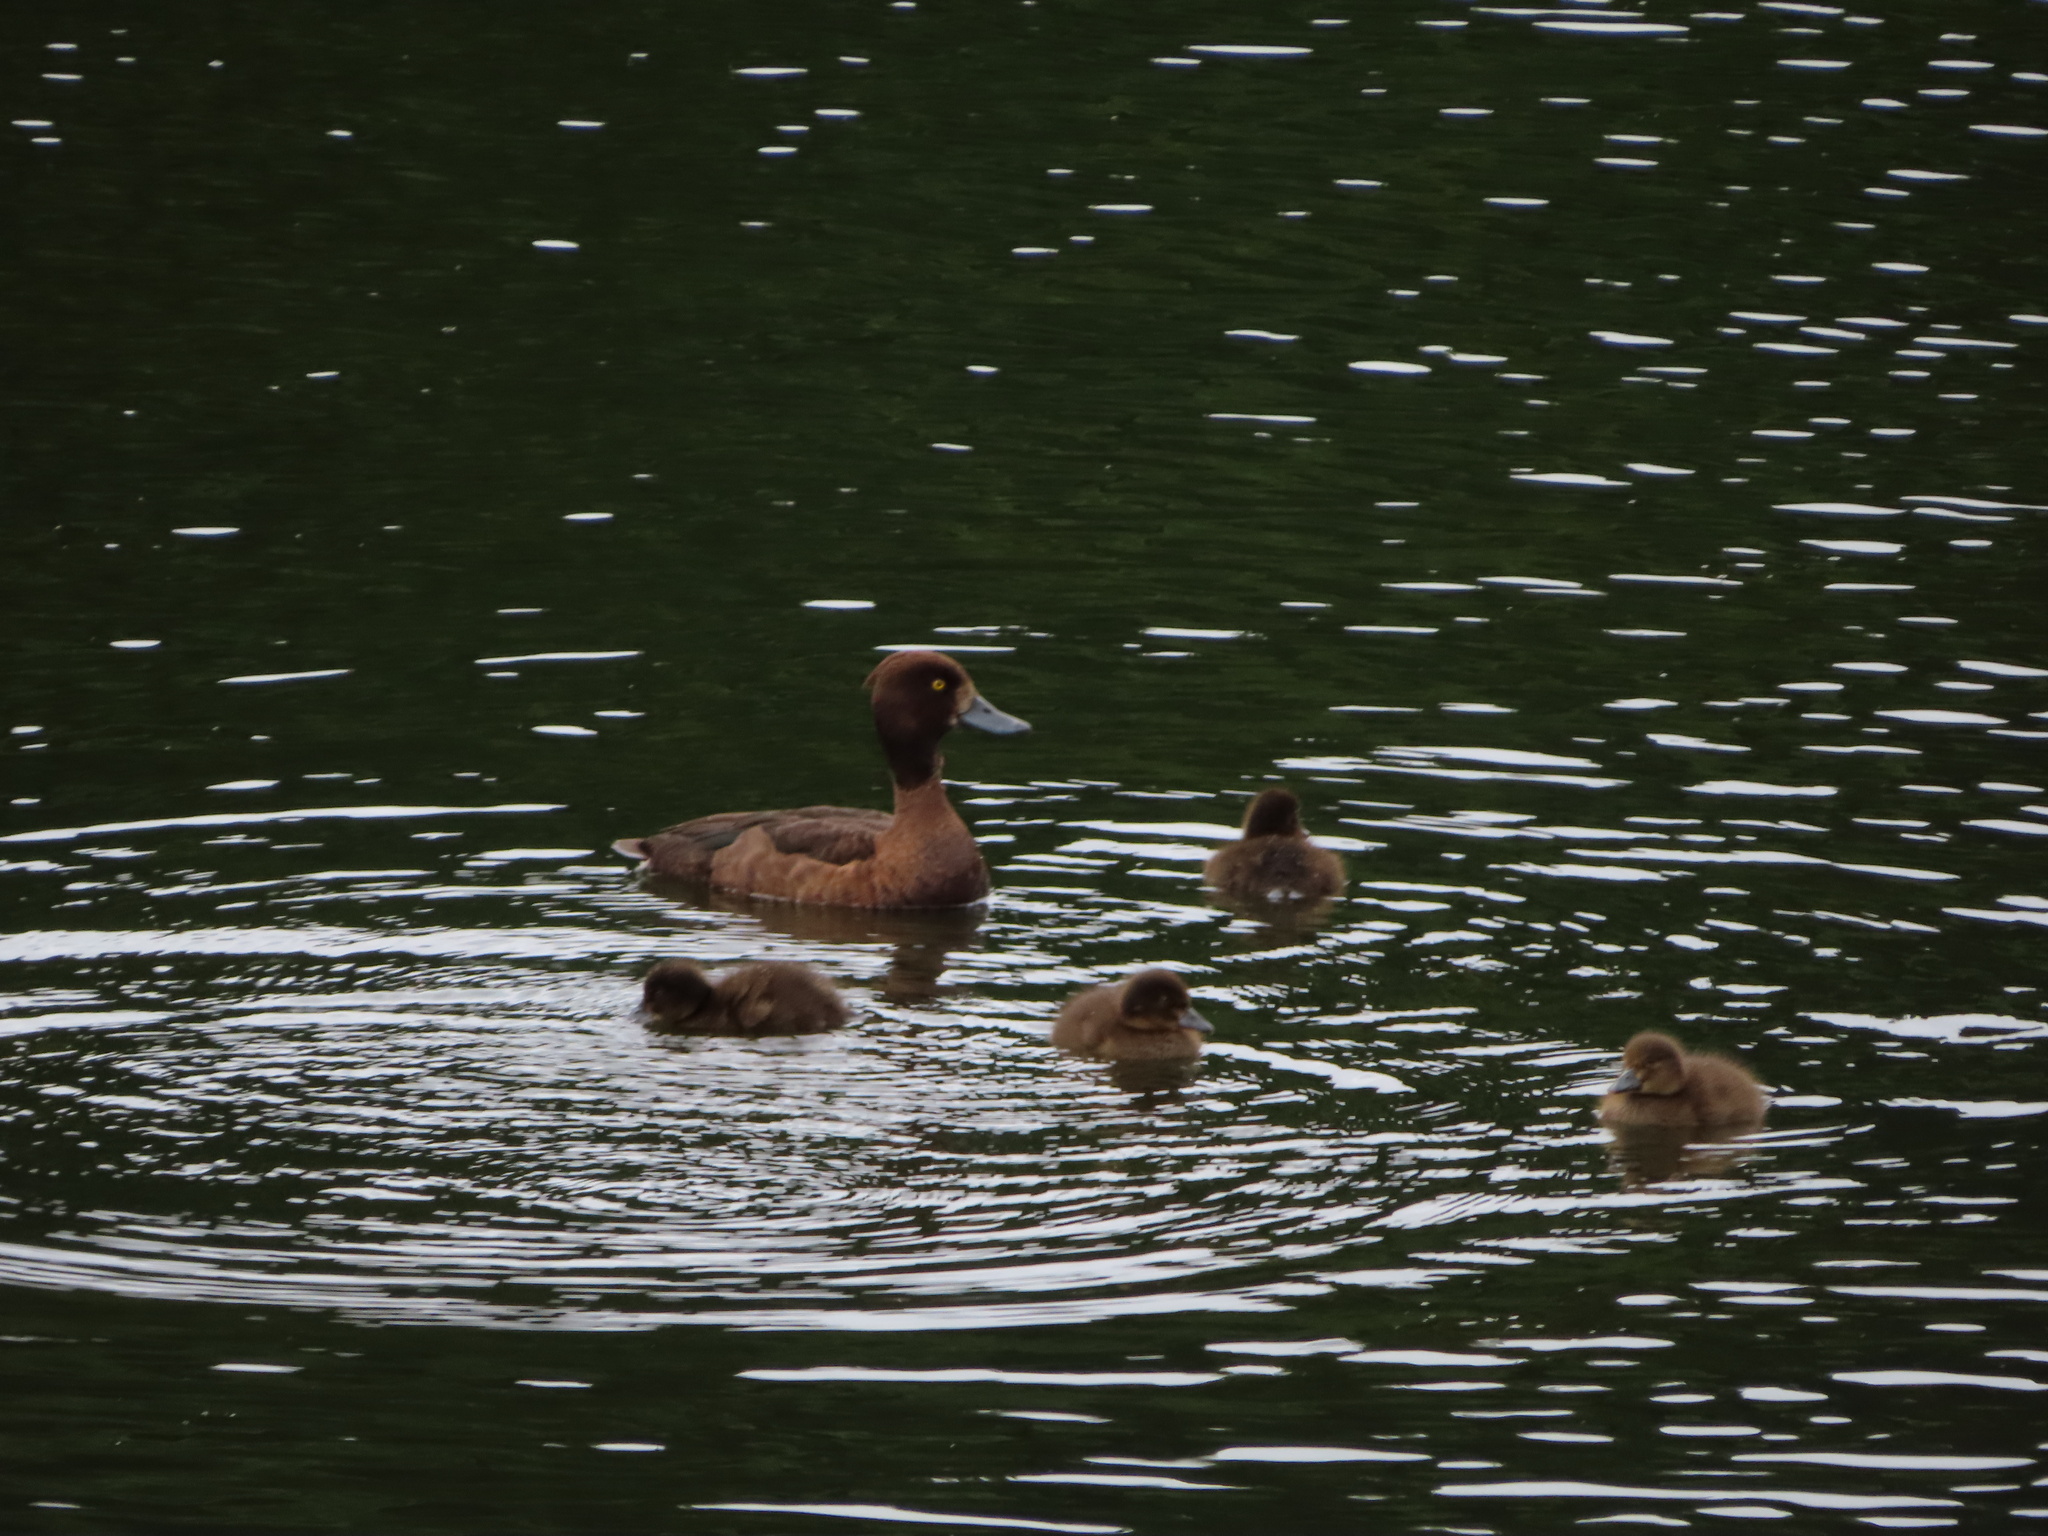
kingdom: Animalia
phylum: Chordata
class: Aves
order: Anseriformes
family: Anatidae
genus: Aythya
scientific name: Aythya fuligula
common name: Tufted duck
